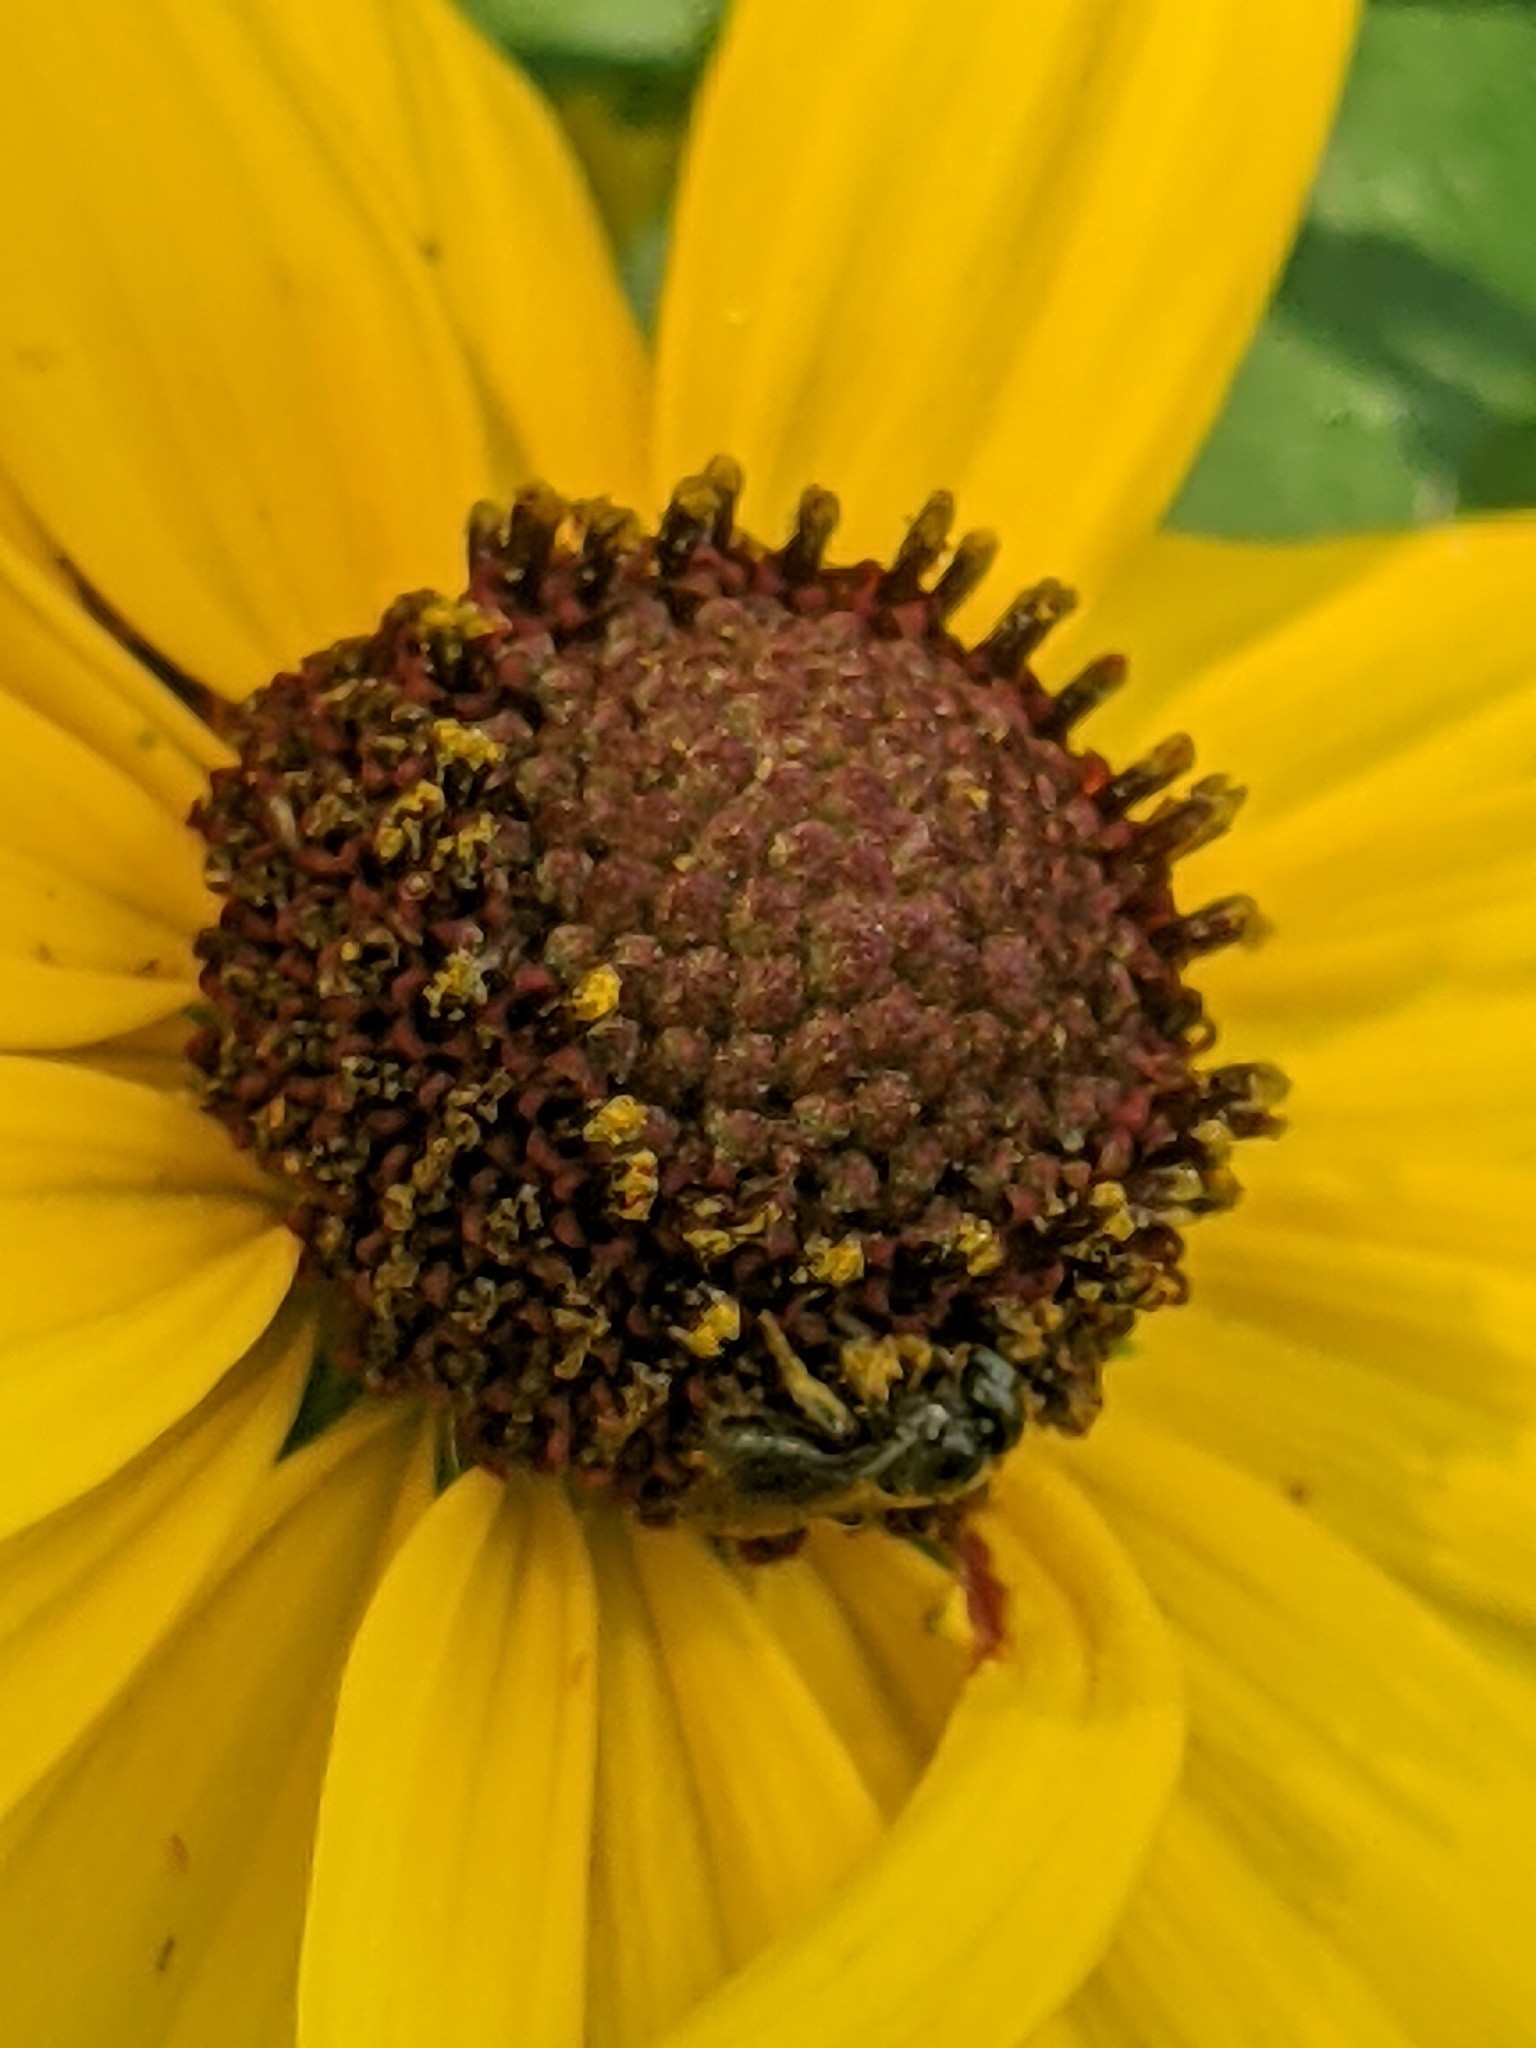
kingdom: Animalia
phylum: Arthropoda
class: Insecta
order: Hymenoptera
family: Apidae
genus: Zadontomerus
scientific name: Zadontomerus
